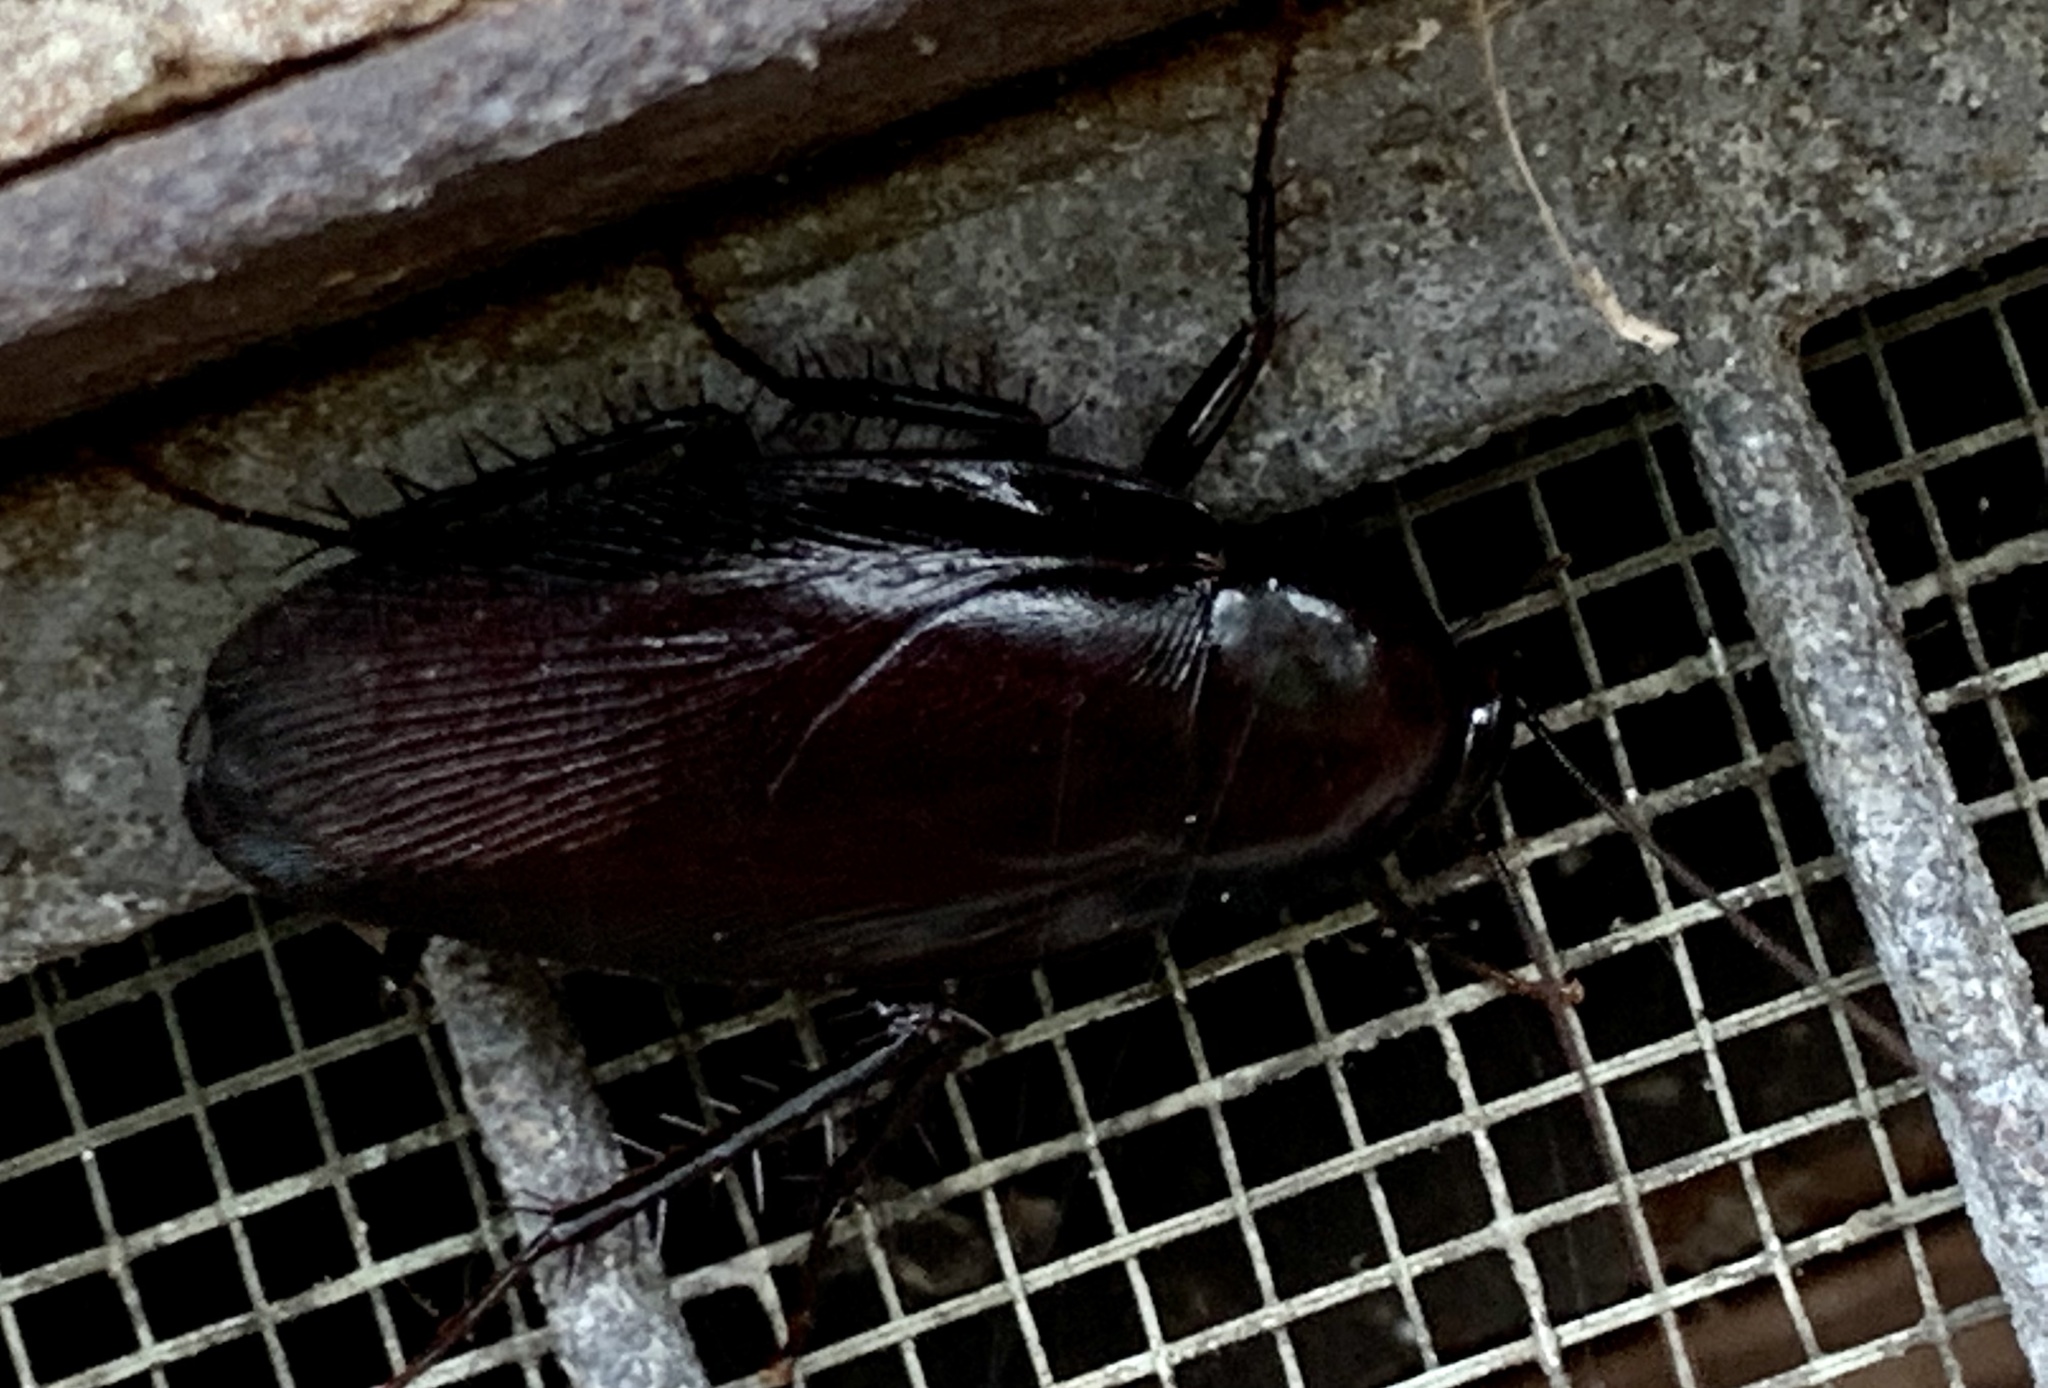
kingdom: Animalia
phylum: Arthropoda
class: Insecta
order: Blattodea
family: Blattidae
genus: Periplaneta
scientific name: Periplaneta fuliginosa
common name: Smokeybrown cockroad
